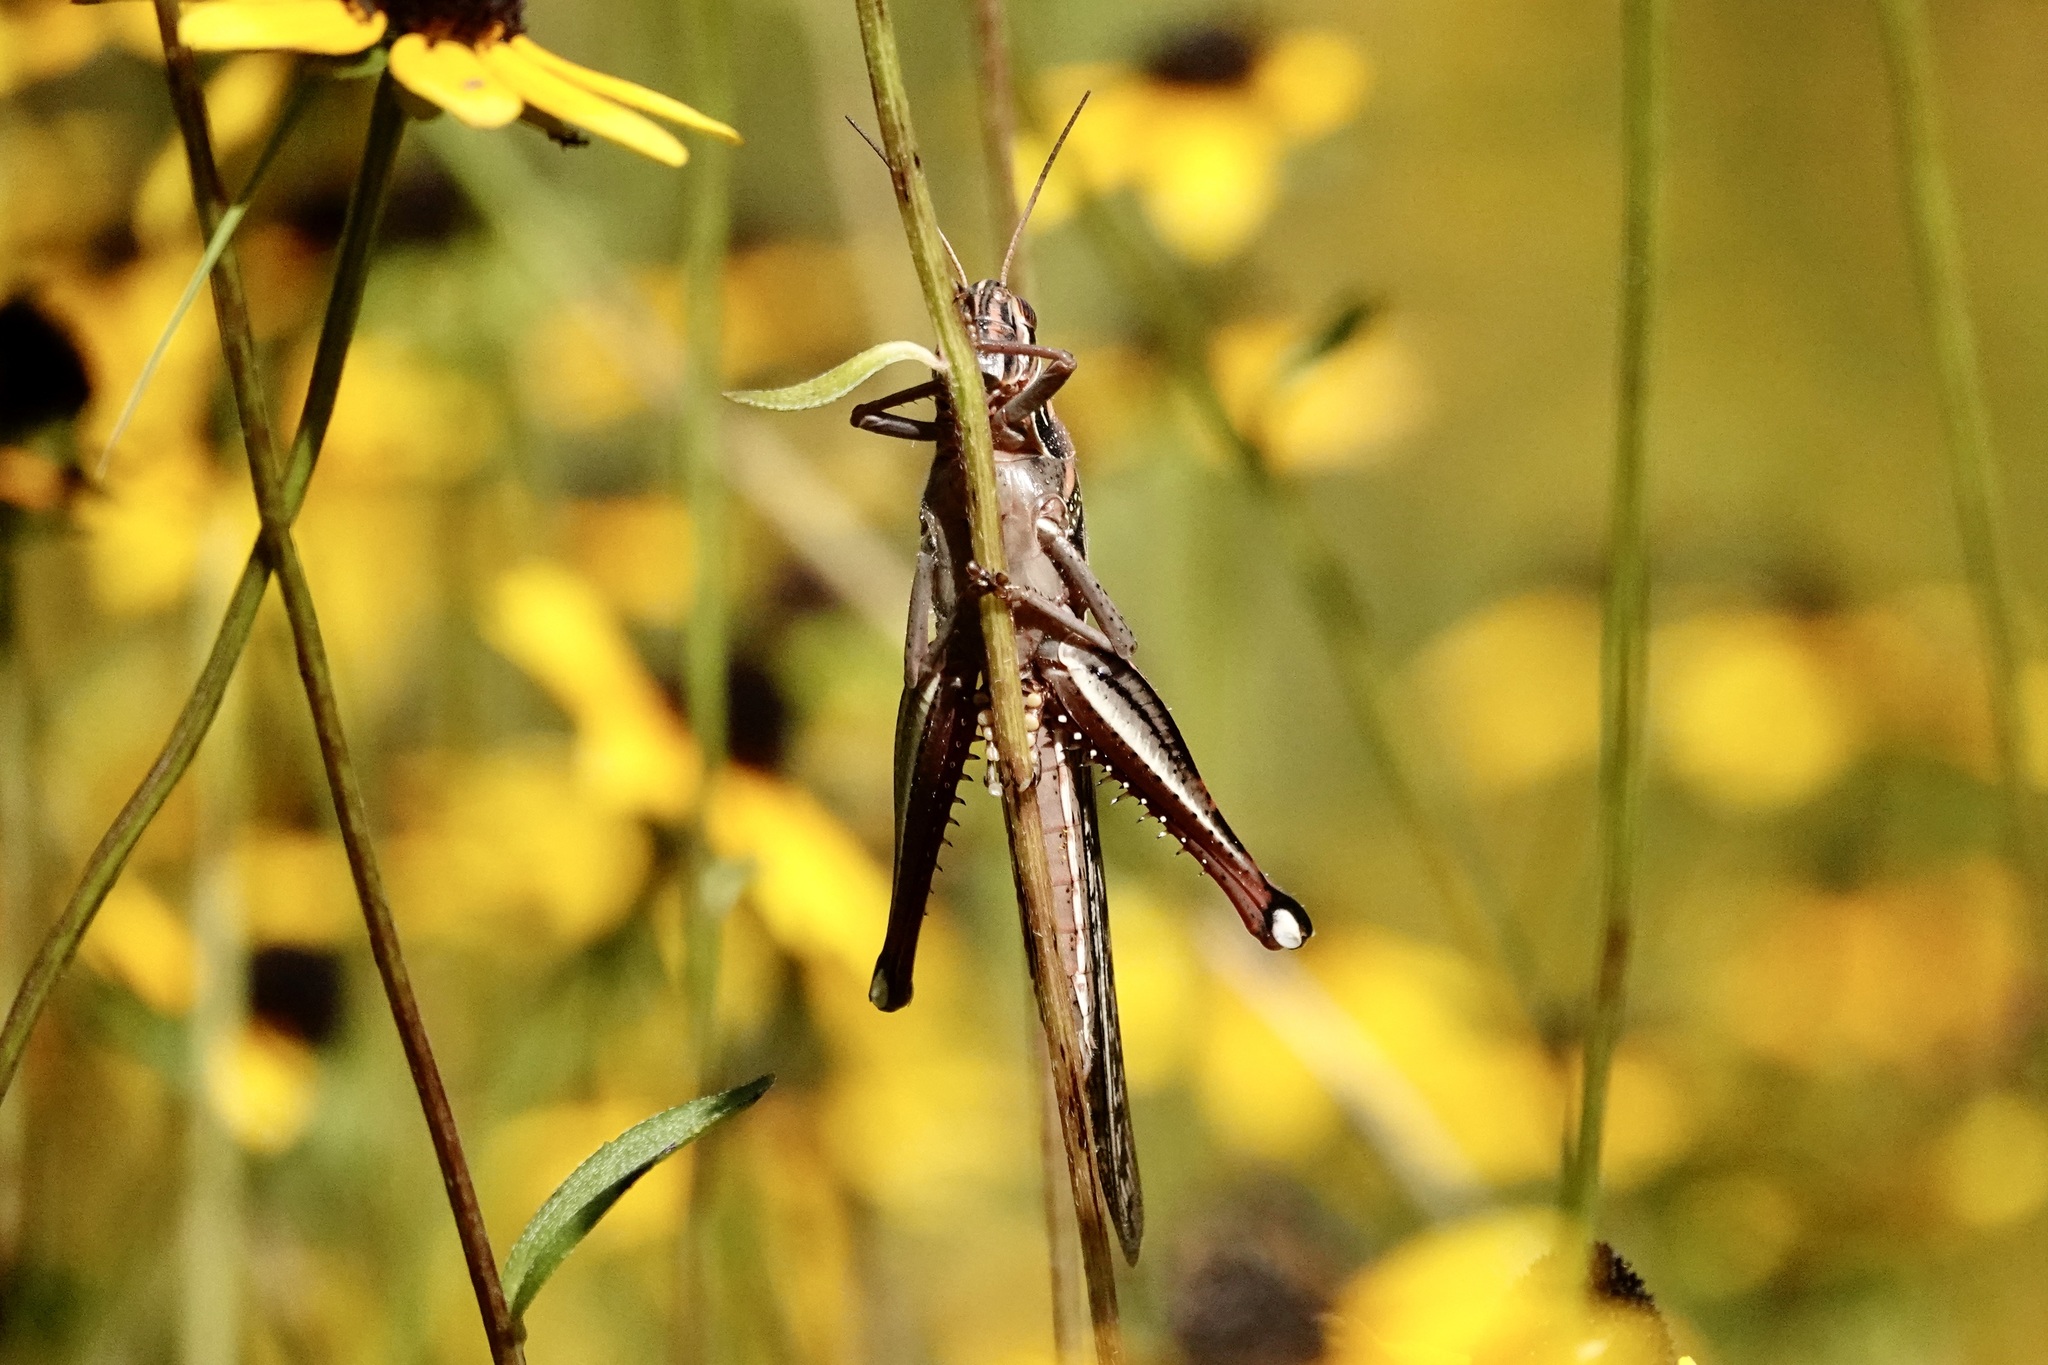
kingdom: Animalia
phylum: Arthropoda
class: Insecta
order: Orthoptera
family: Acrididae
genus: Schistocerca
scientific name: Schistocerca americana
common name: American bird locust
